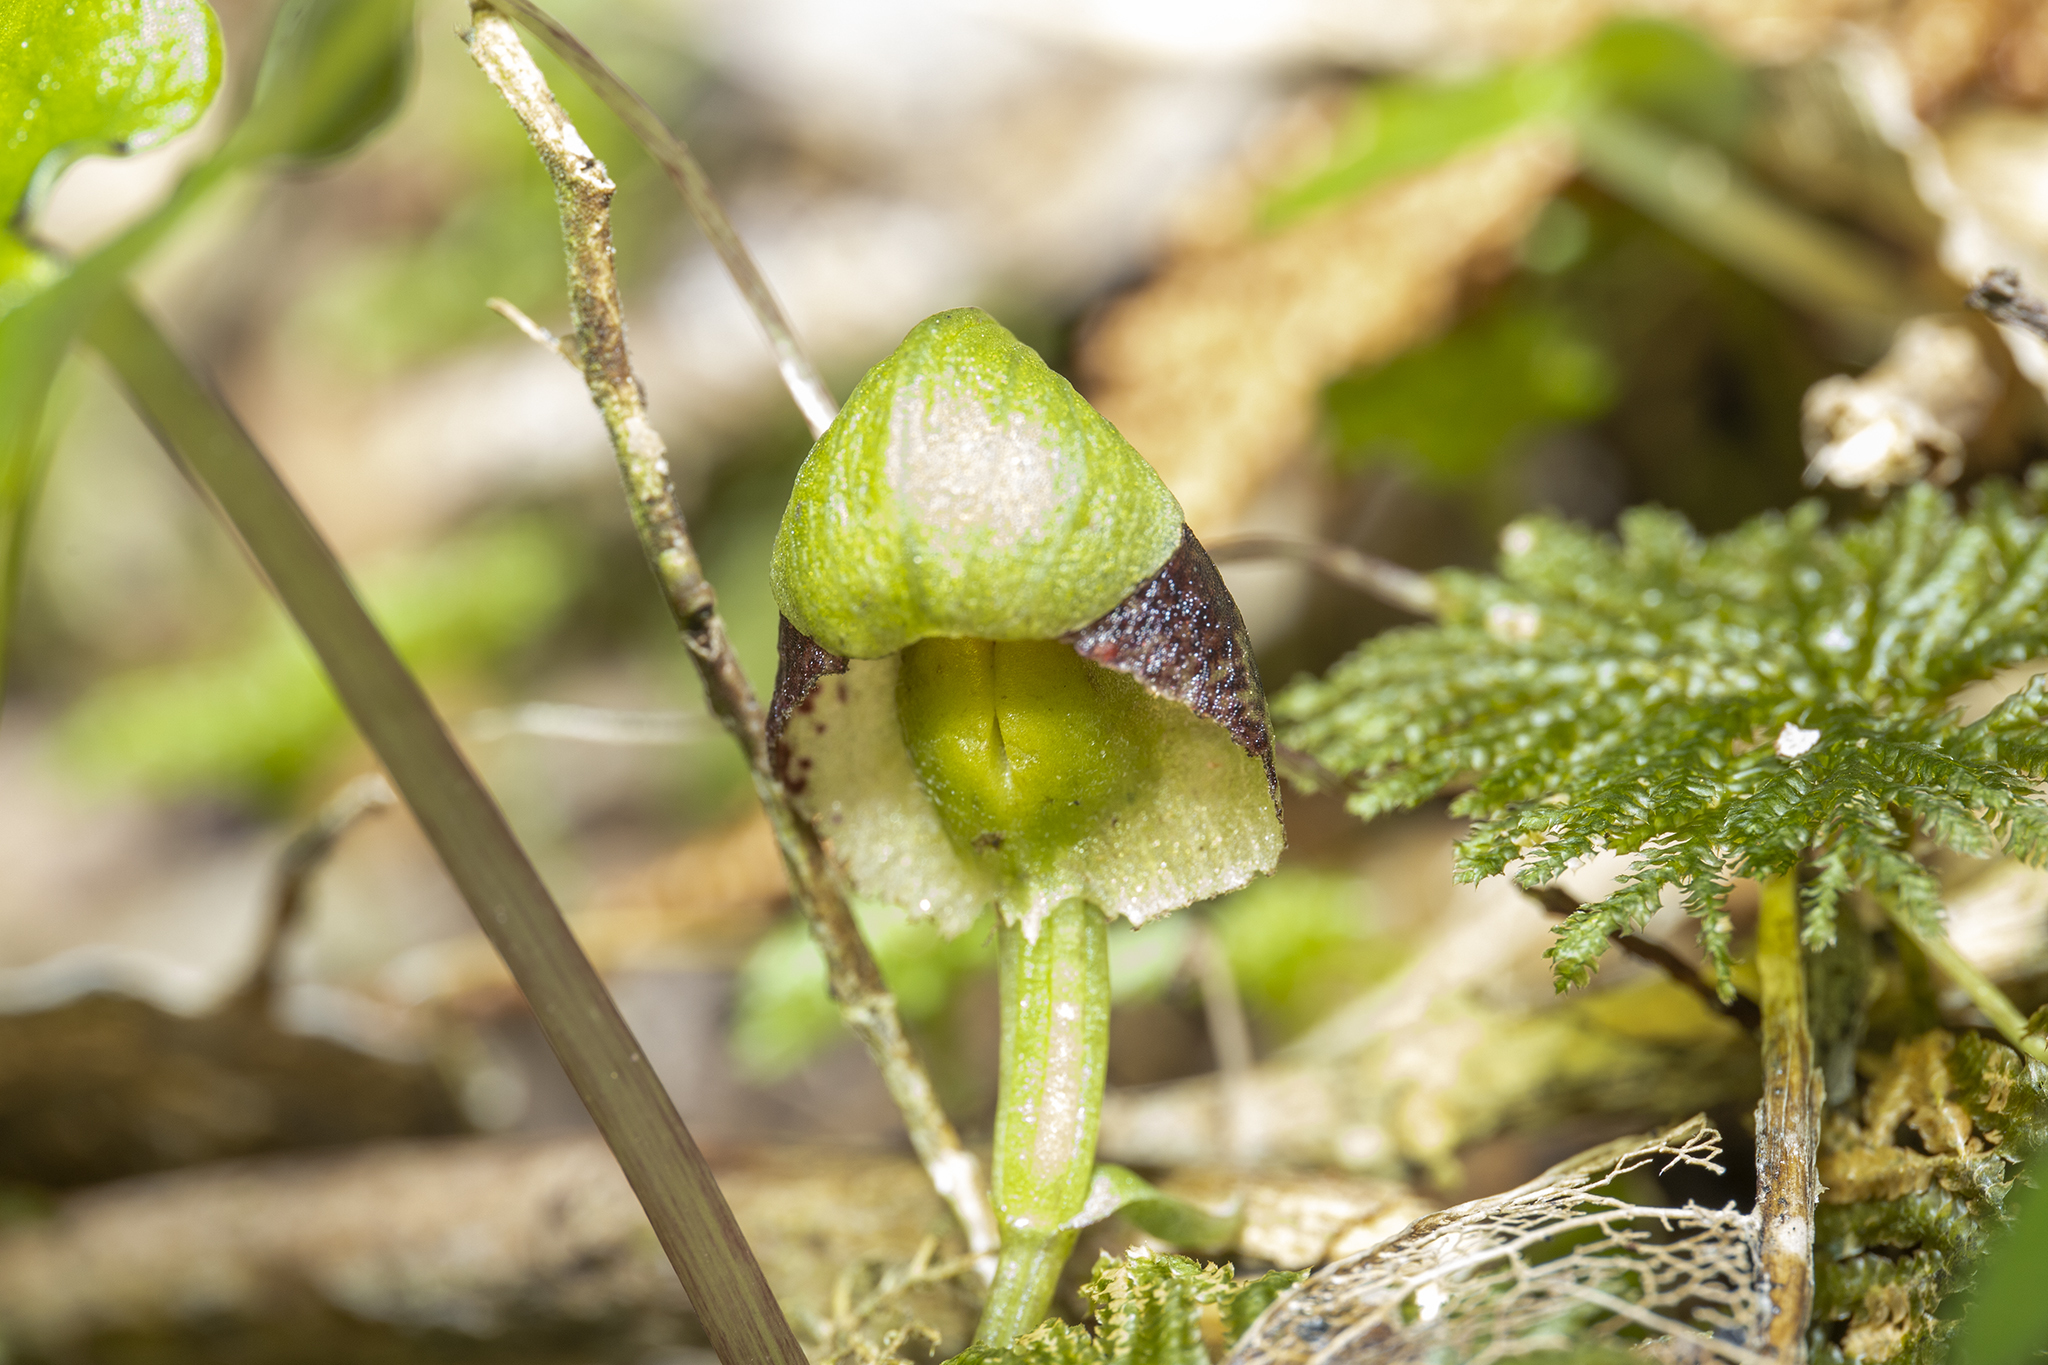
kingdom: Plantae
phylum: Tracheophyta
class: Liliopsida
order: Asparagales
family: Orchidaceae
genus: Corybas
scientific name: Corybas vitreus
